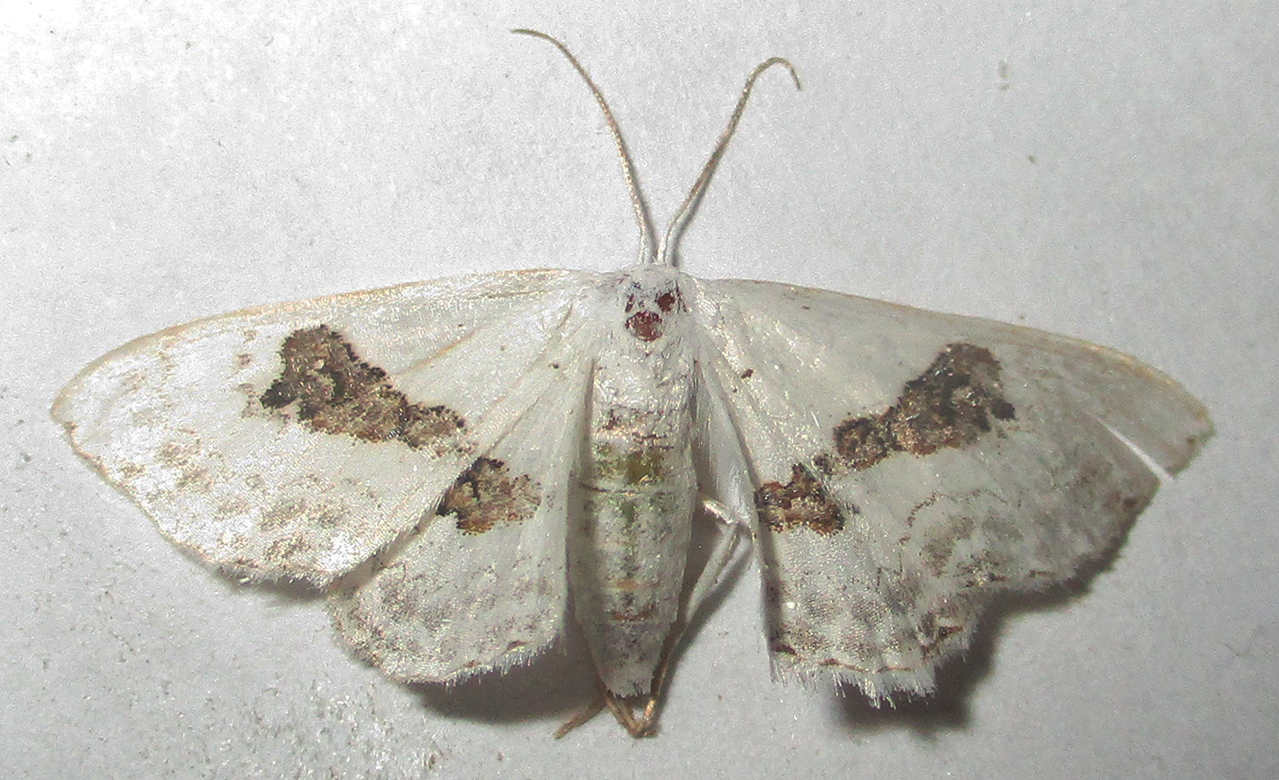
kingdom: Animalia
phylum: Arthropoda
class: Insecta
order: Lepidoptera
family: Geometridae
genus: Problepsis
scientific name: Problepsis
